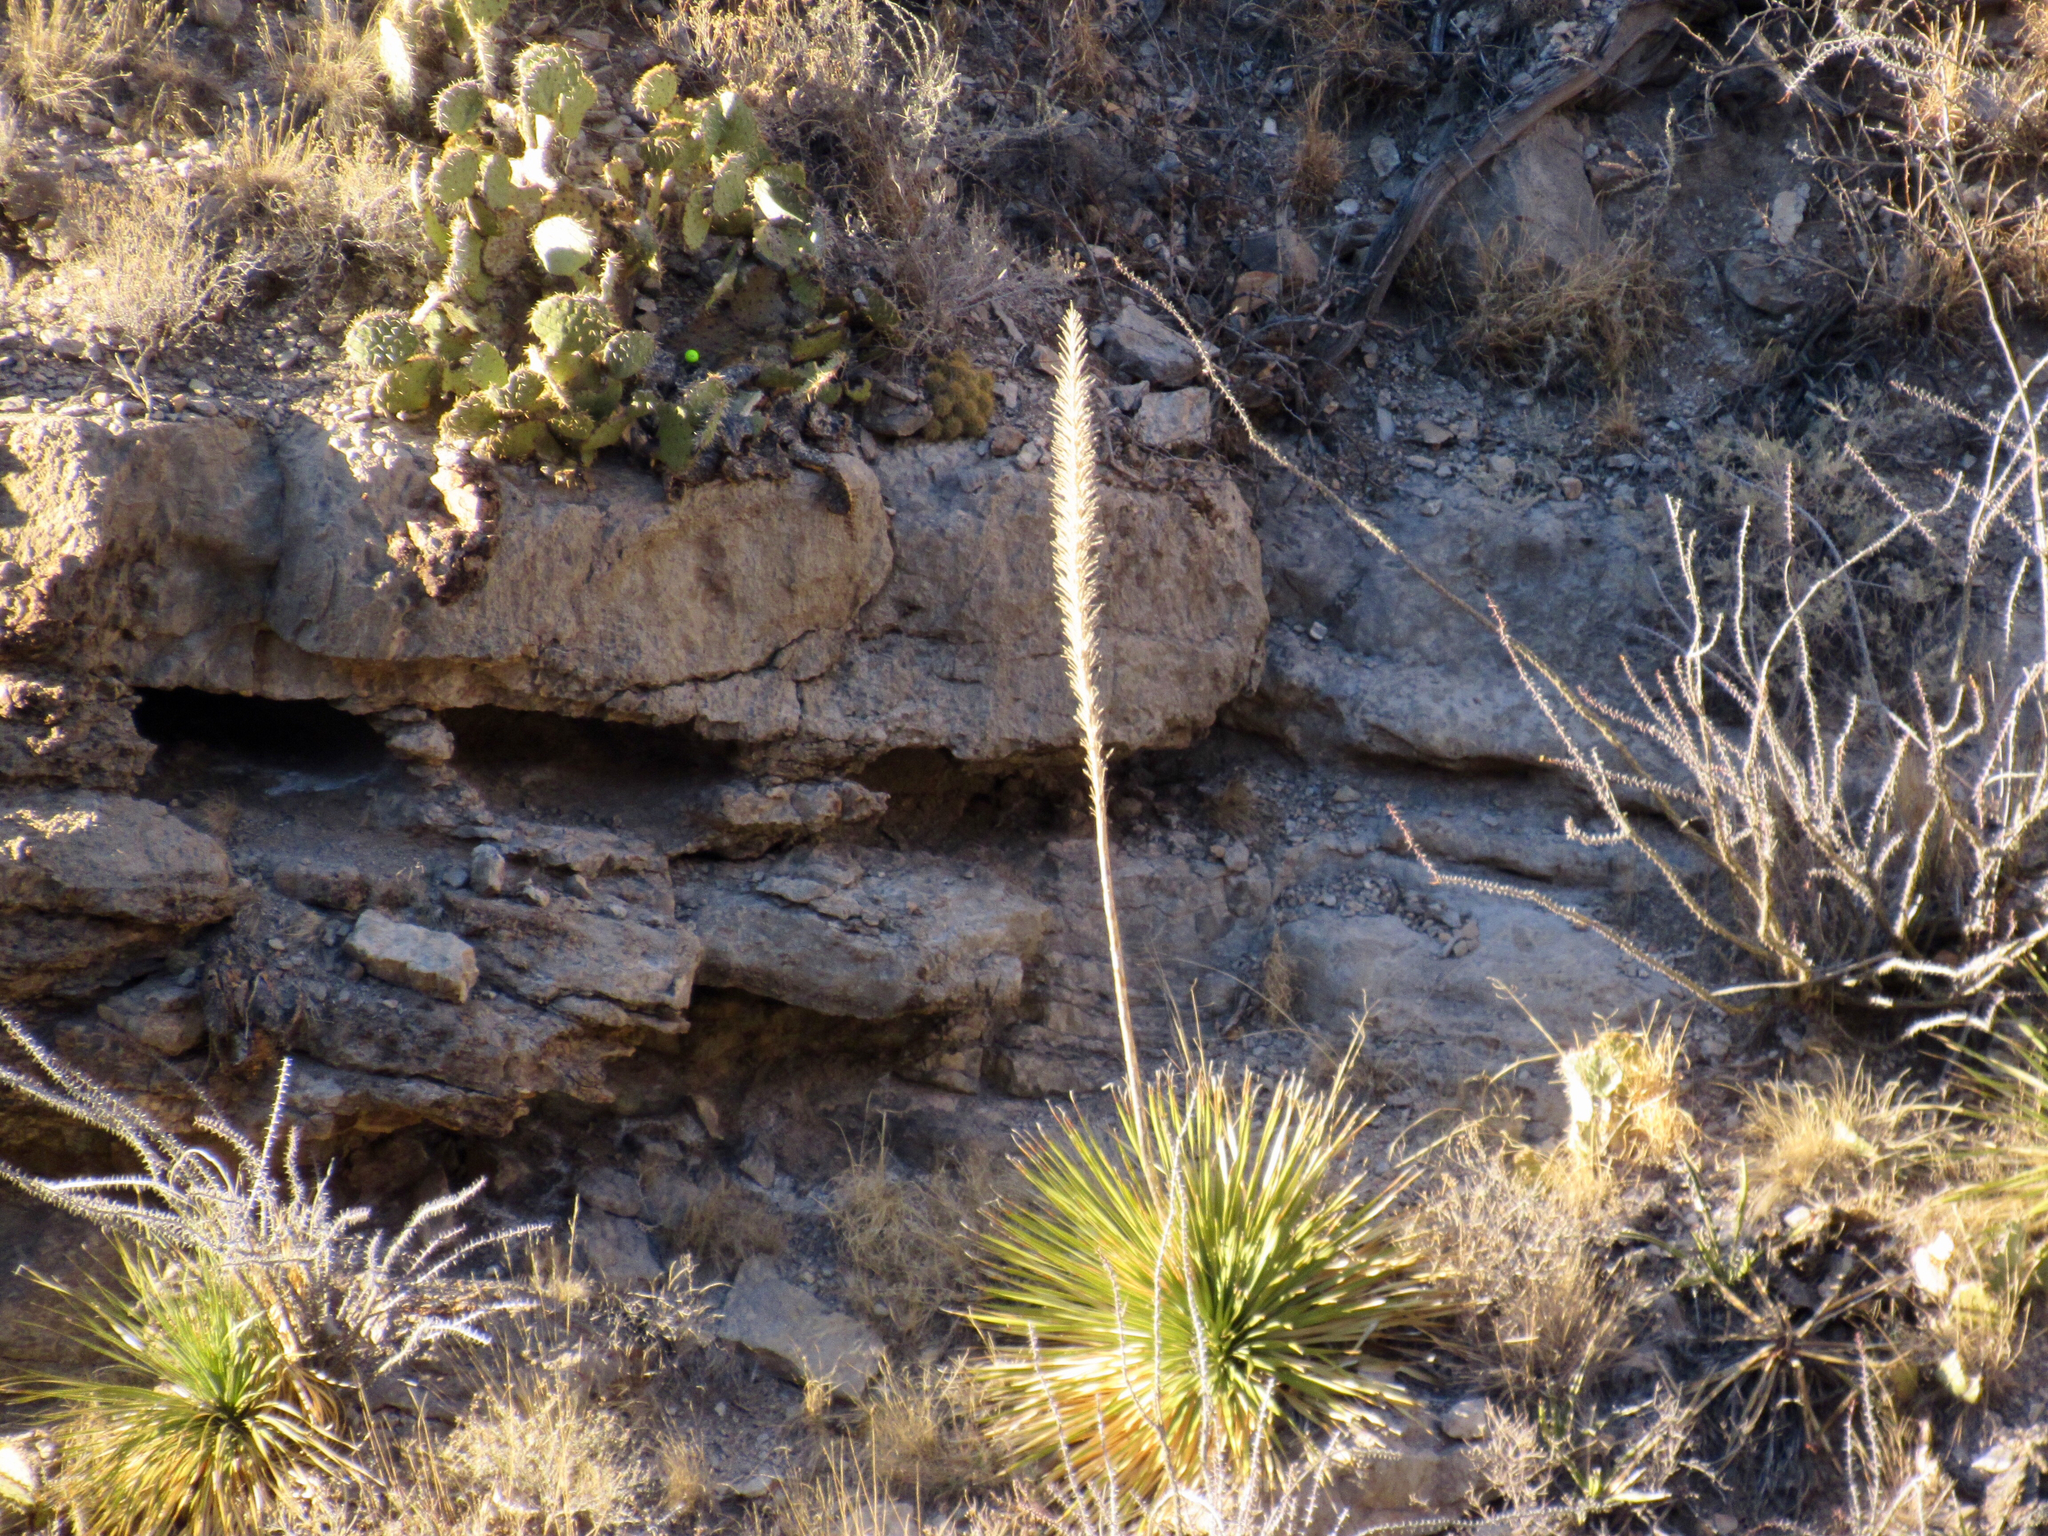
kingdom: Plantae
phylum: Tracheophyta
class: Liliopsida
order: Asparagales
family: Asparagaceae
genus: Dasylirion
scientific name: Dasylirion wheeleri
